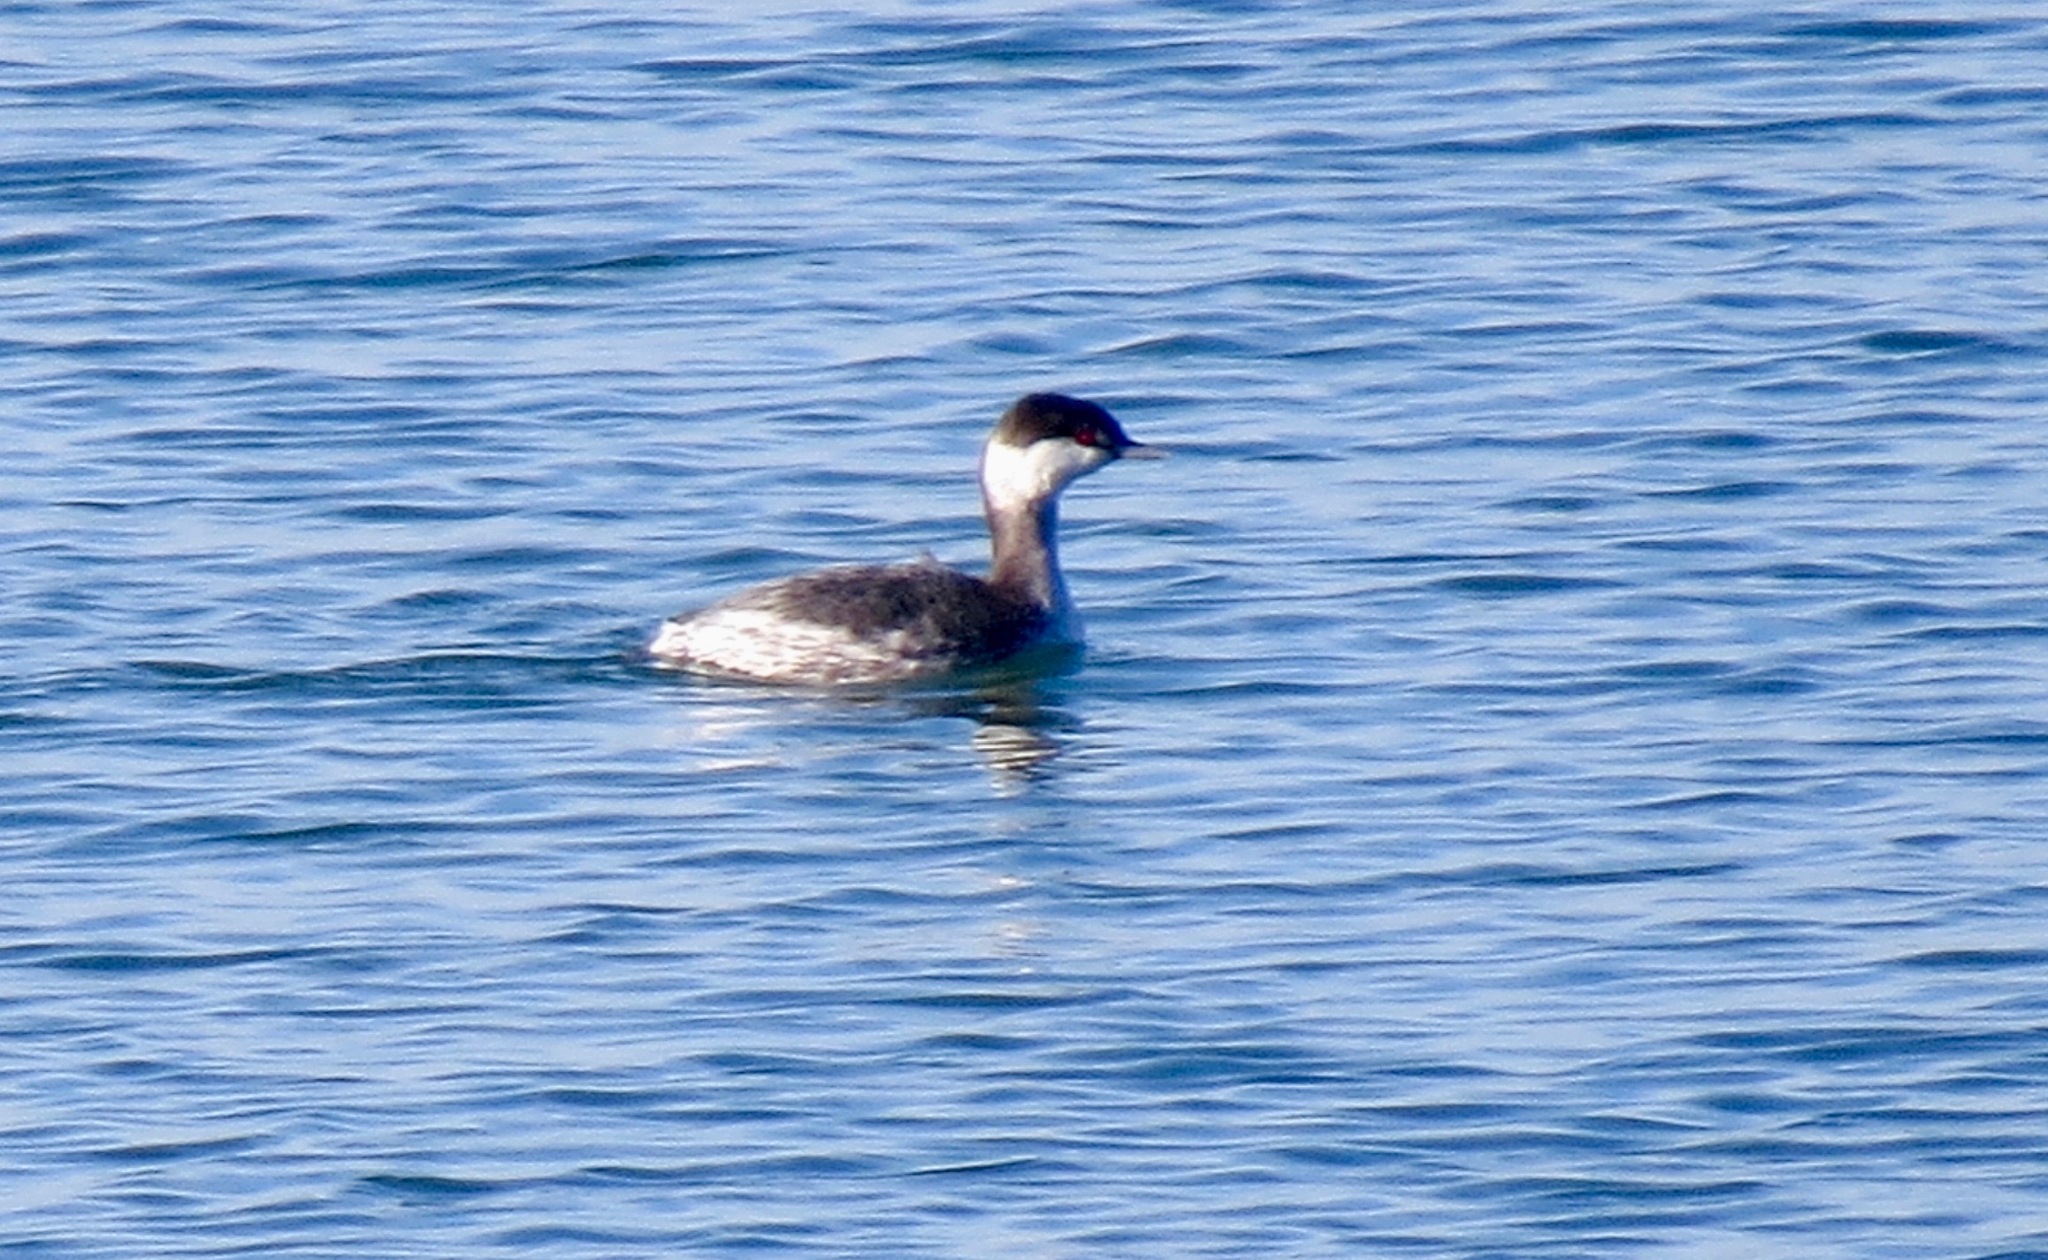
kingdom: Animalia
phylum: Chordata
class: Aves
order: Podicipediformes
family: Podicipedidae
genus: Podiceps
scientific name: Podiceps auritus
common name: Horned grebe
